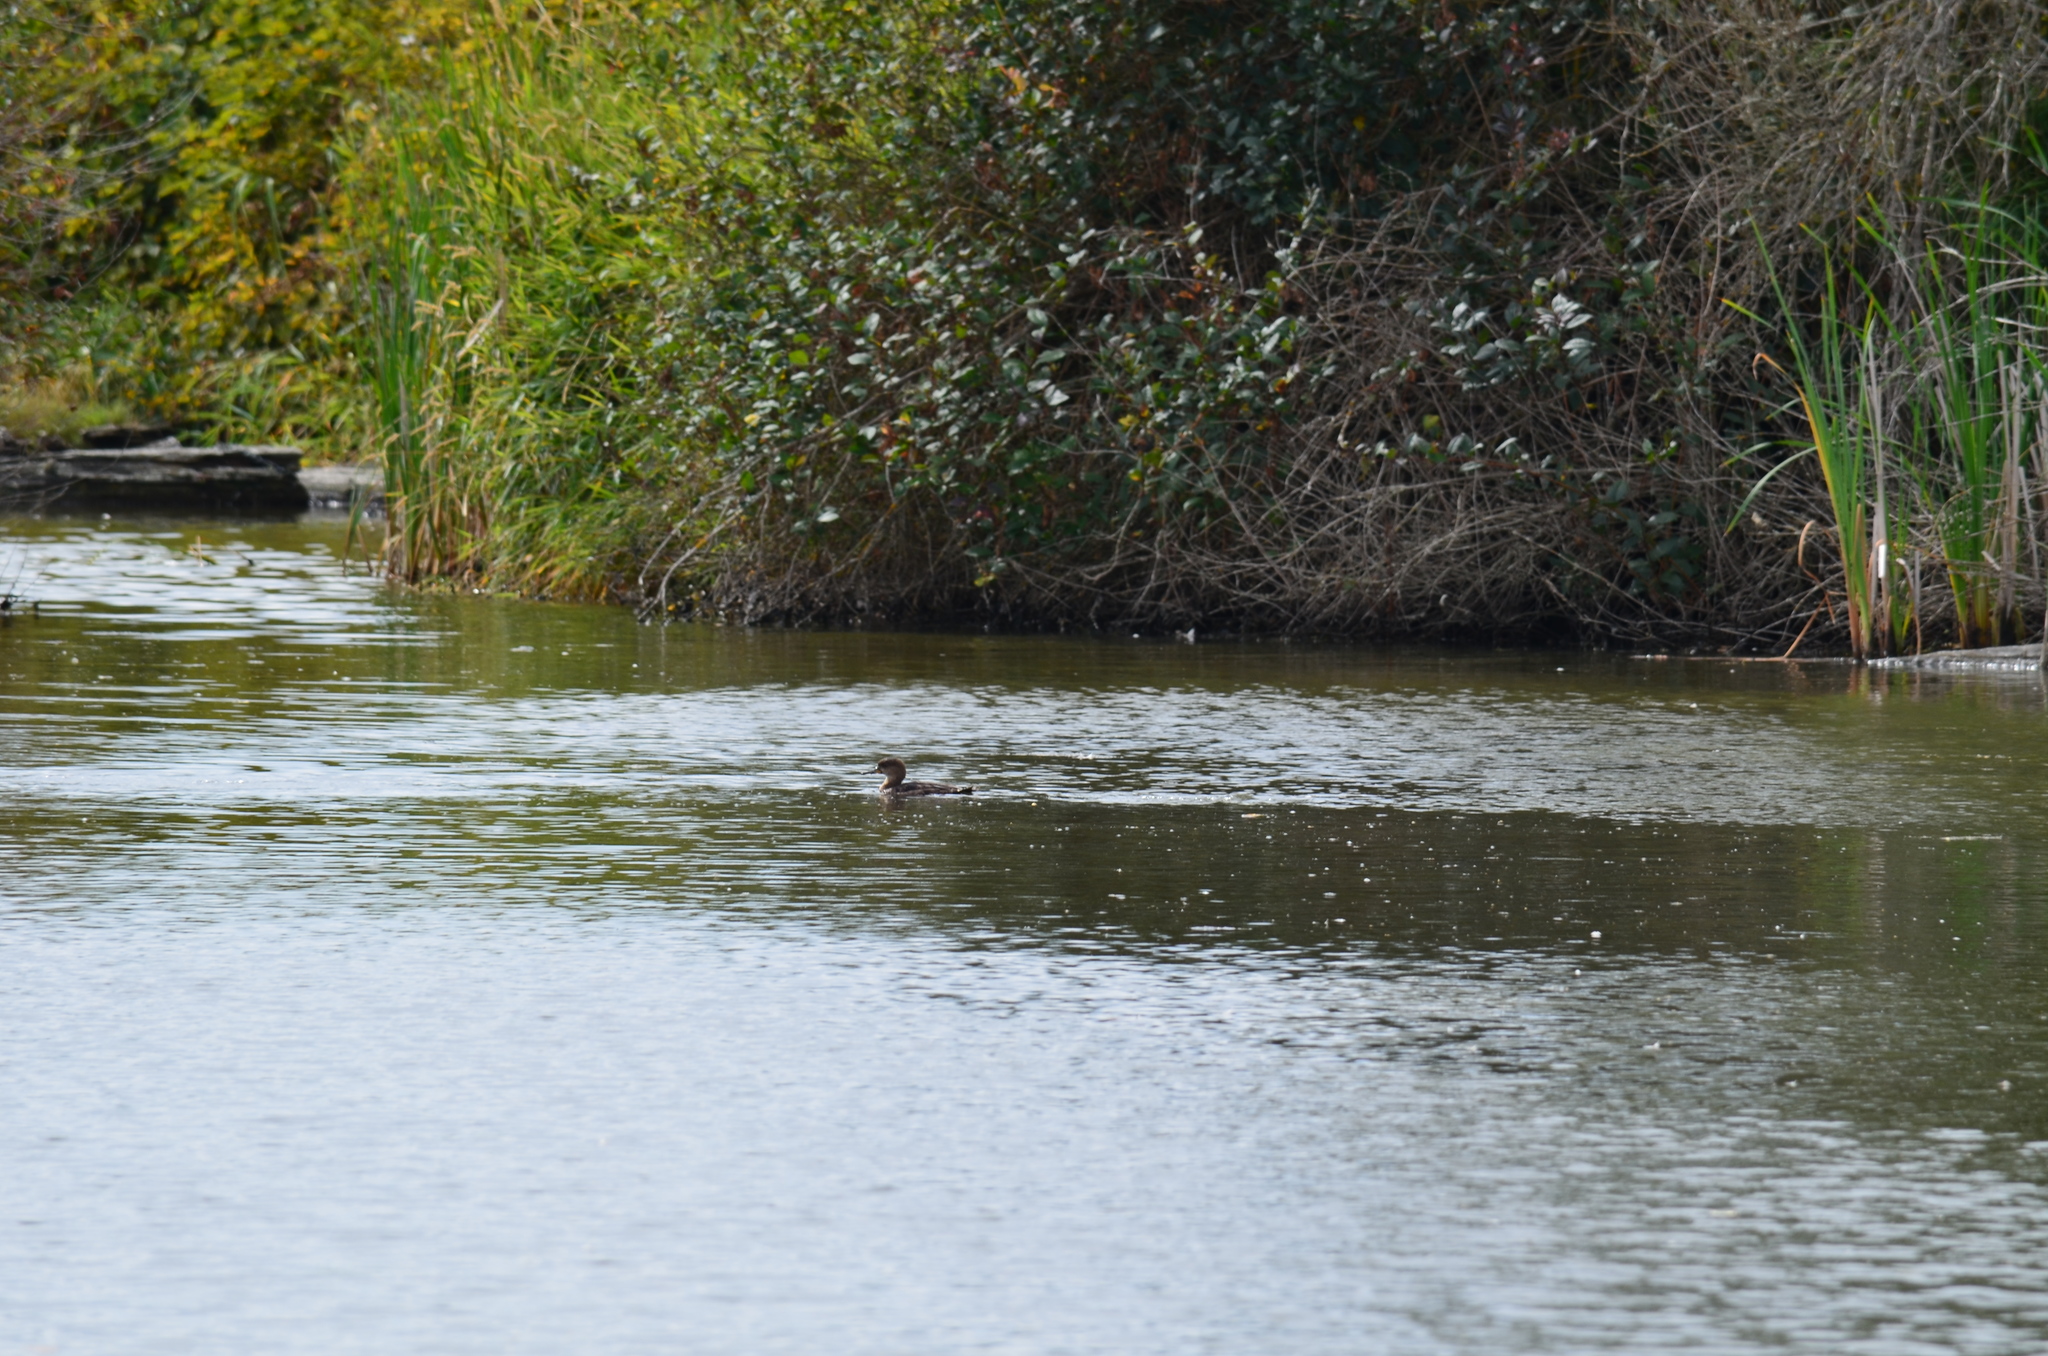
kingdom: Animalia
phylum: Chordata
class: Aves
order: Anseriformes
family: Anatidae
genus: Lophodytes
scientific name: Lophodytes cucullatus
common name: Hooded merganser
